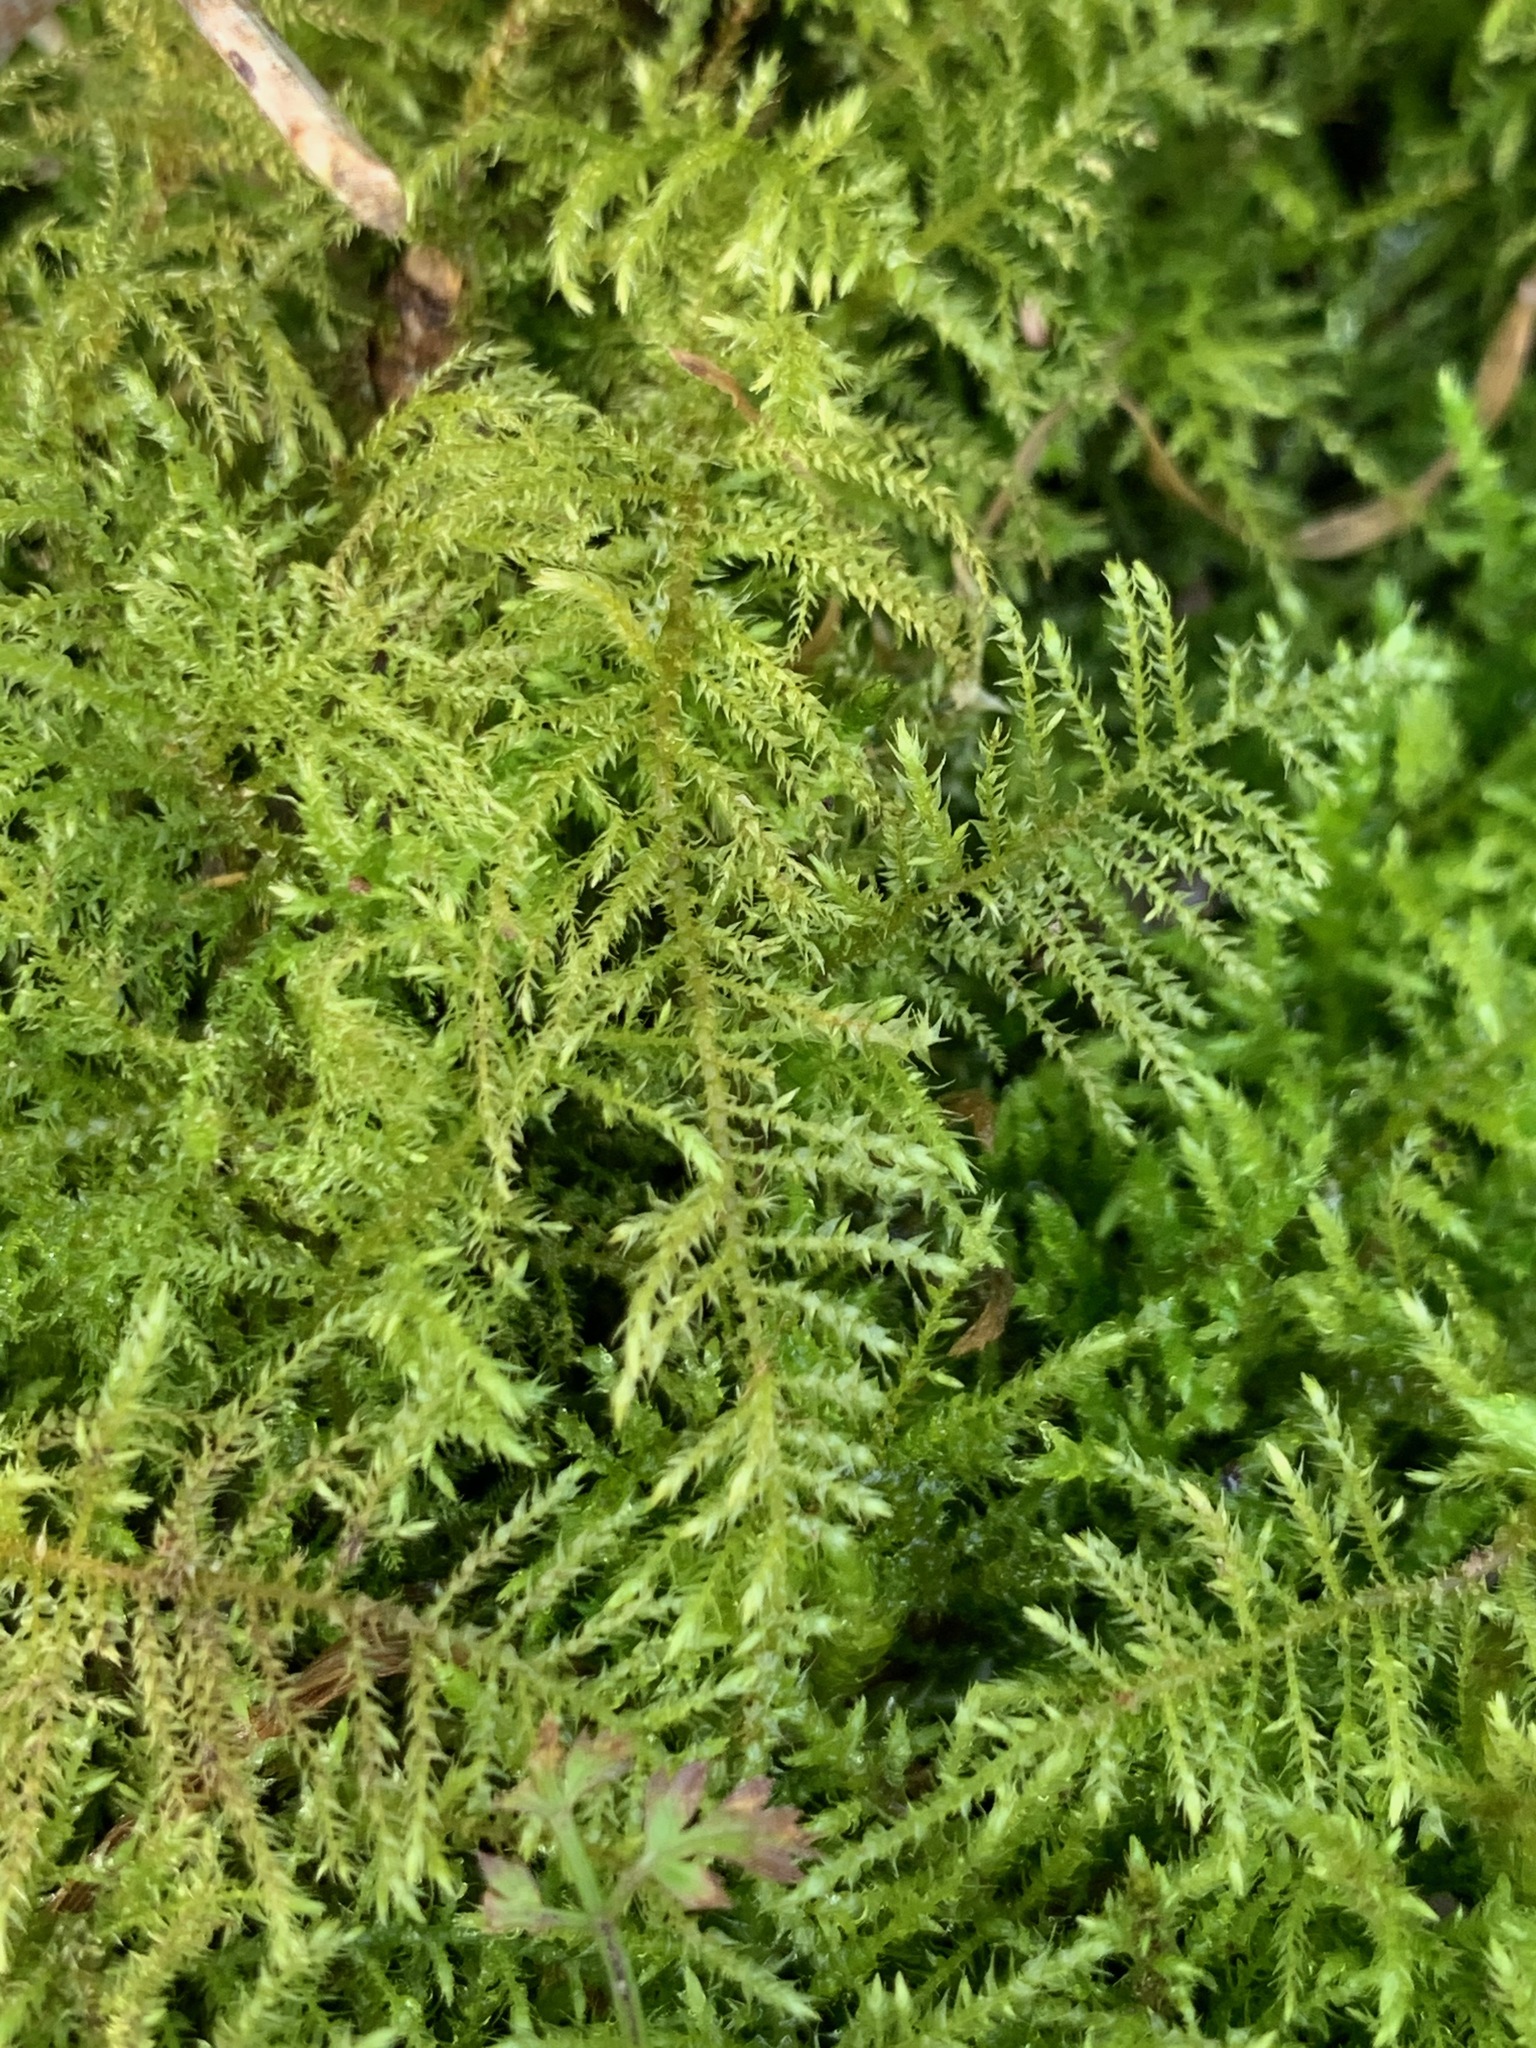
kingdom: Plantae
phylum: Bryophyta
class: Bryopsida
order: Hypnales
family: Brachytheciaceae
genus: Kindbergia
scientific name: Kindbergia praelonga
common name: Slender beaked moss
